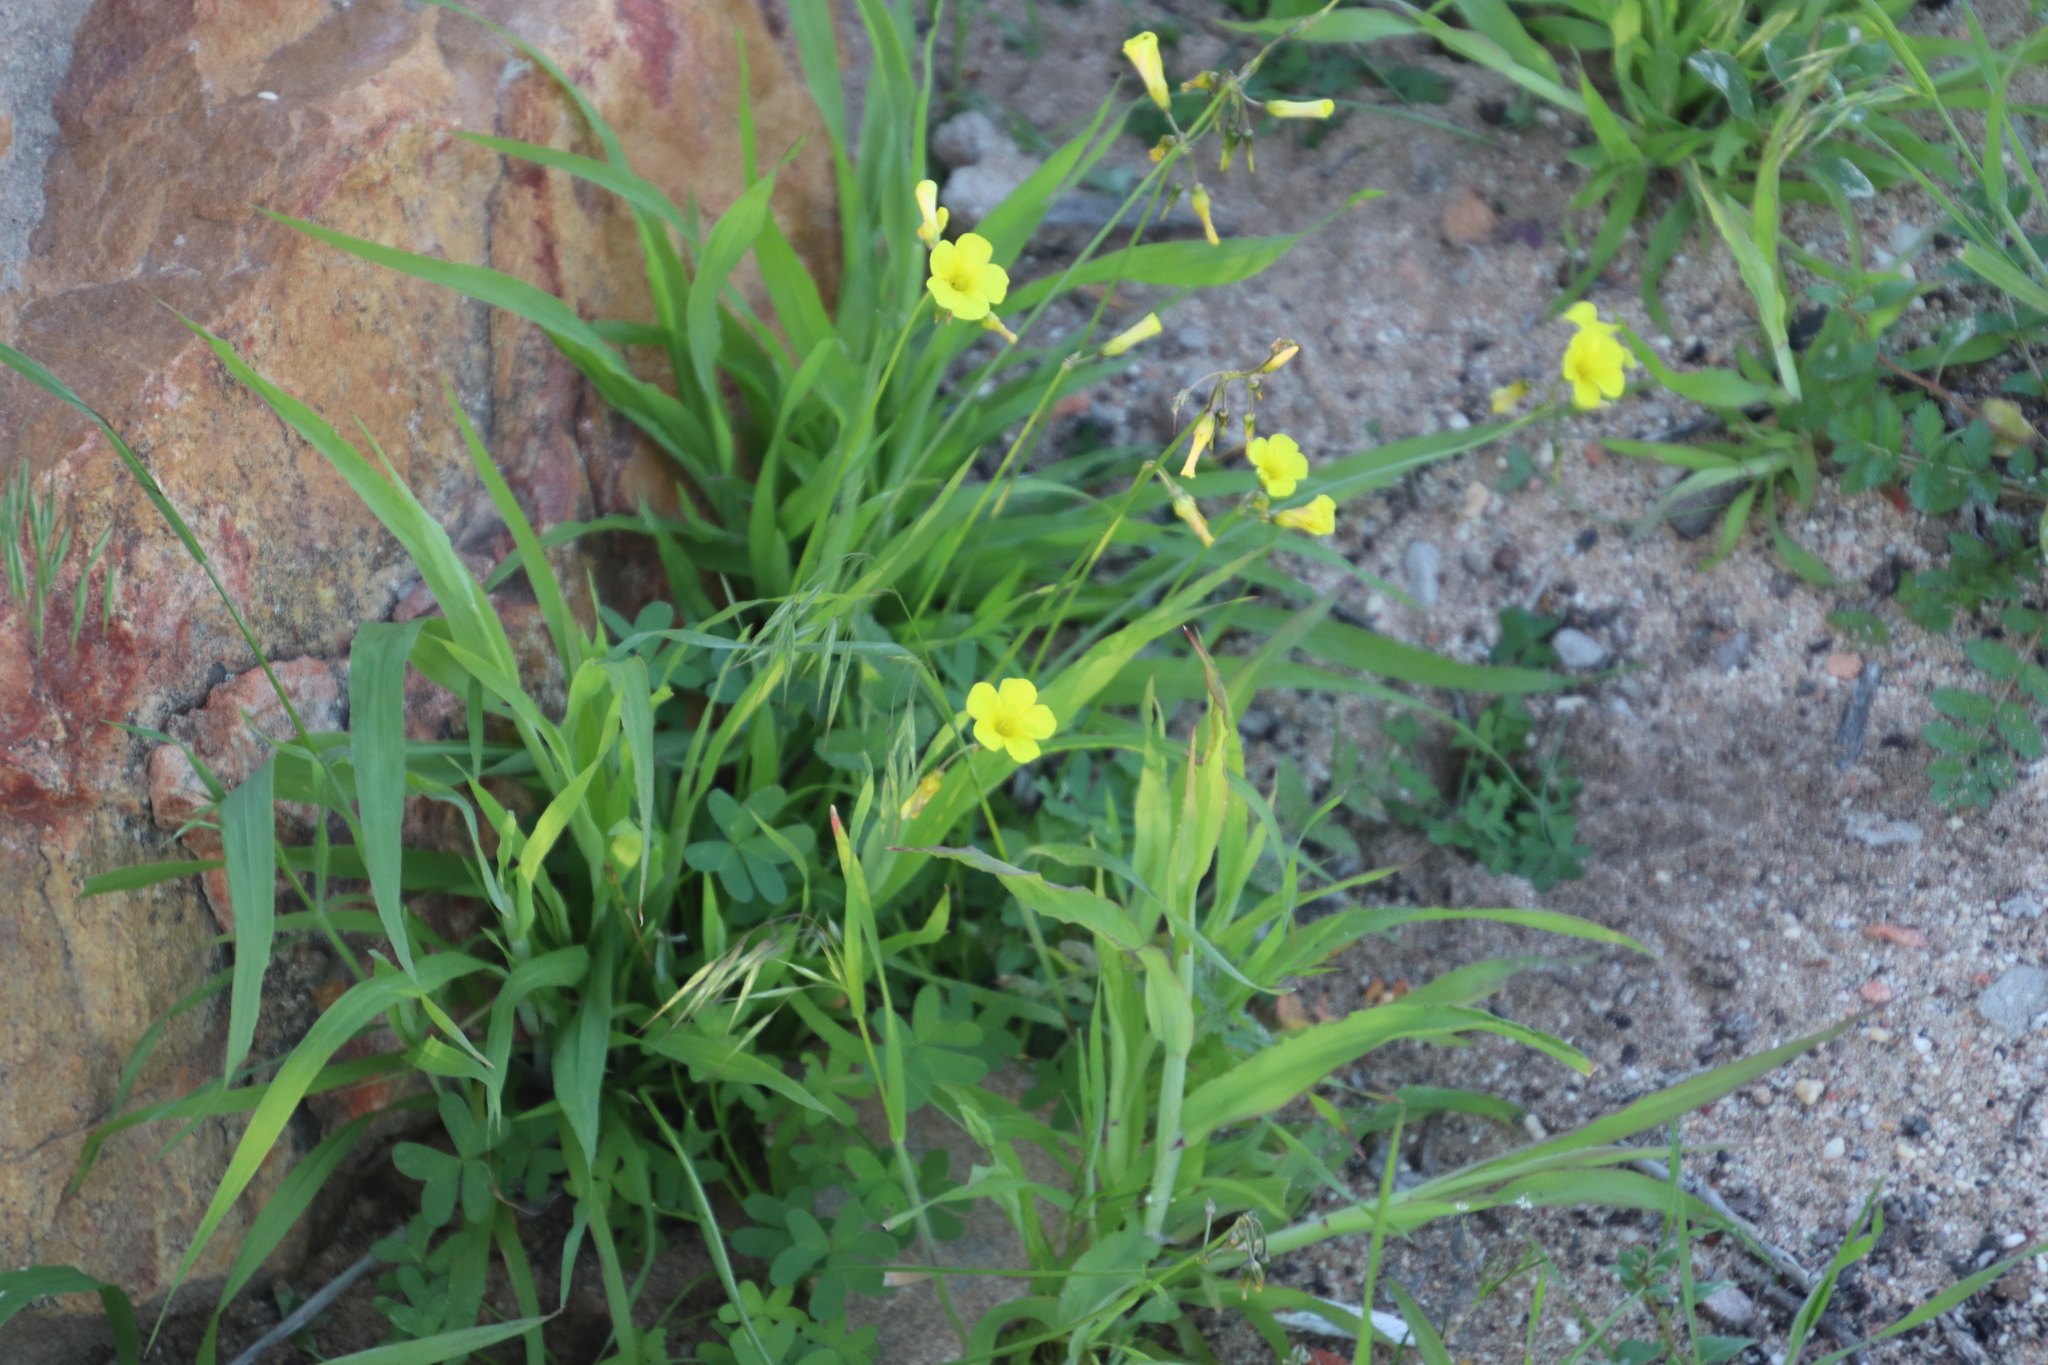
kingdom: Plantae
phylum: Tracheophyta
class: Magnoliopsida
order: Oxalidales
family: Oxalidaceae
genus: Oxalis
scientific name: Oxalis pes-caprae
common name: Bermuda-buttercup
